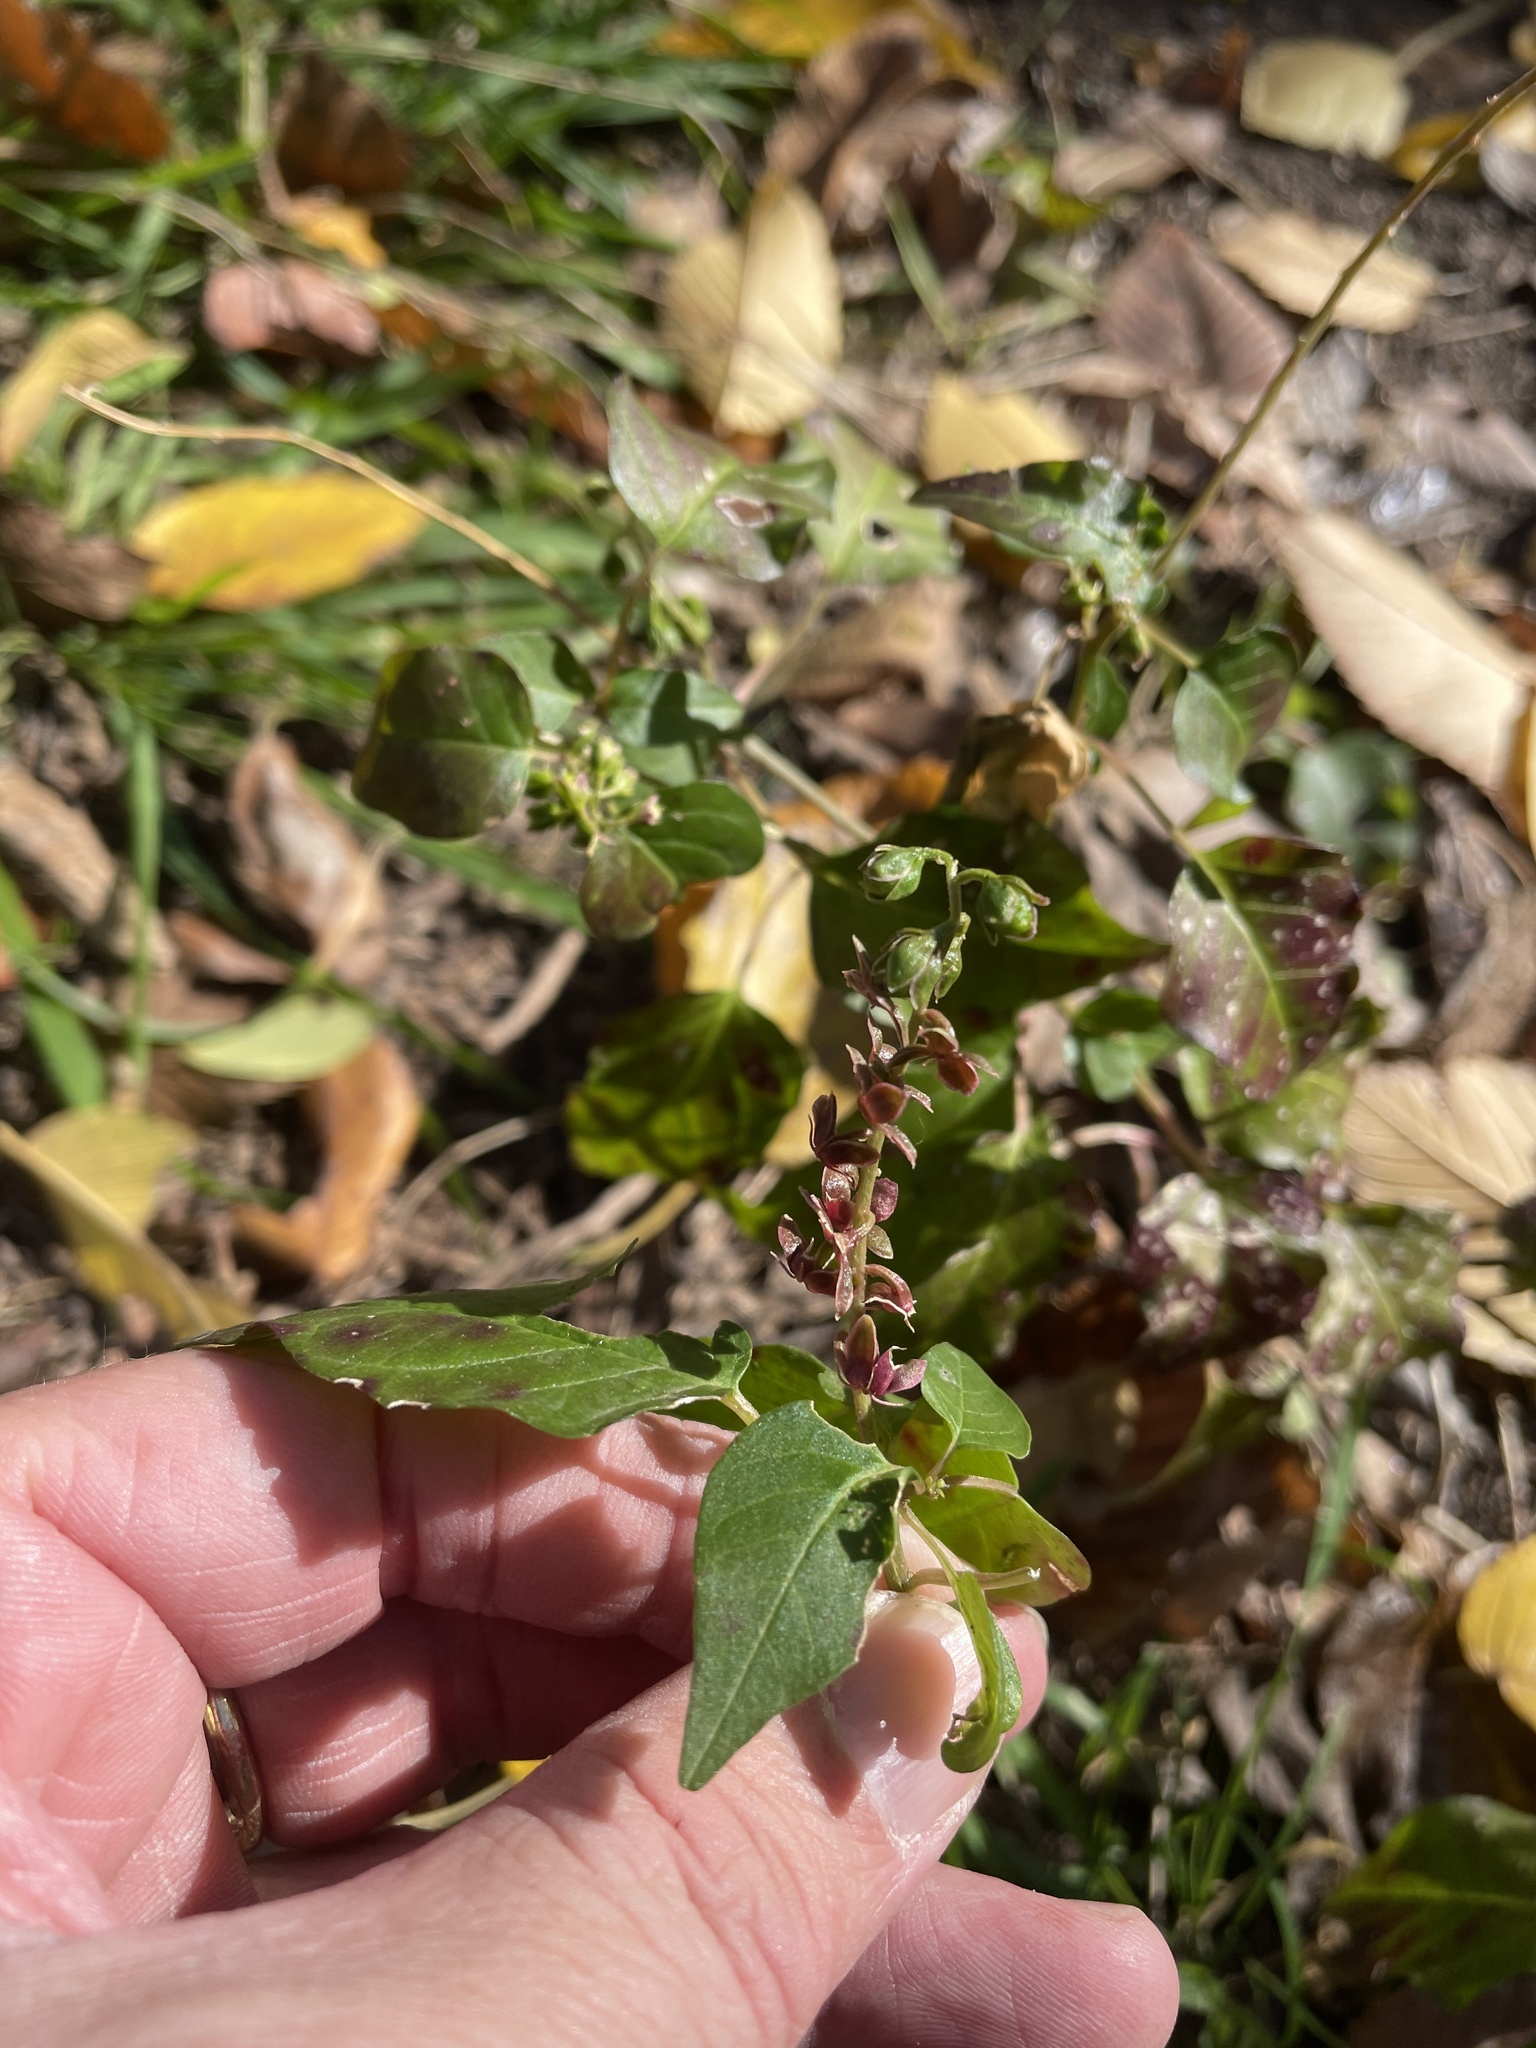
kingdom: Plantae
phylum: Tracheophyta
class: Magnoliopsida
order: Caryophyllales
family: Phytolaccaceae
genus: Rivina
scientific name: Rivina humilis
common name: Rougeplant
